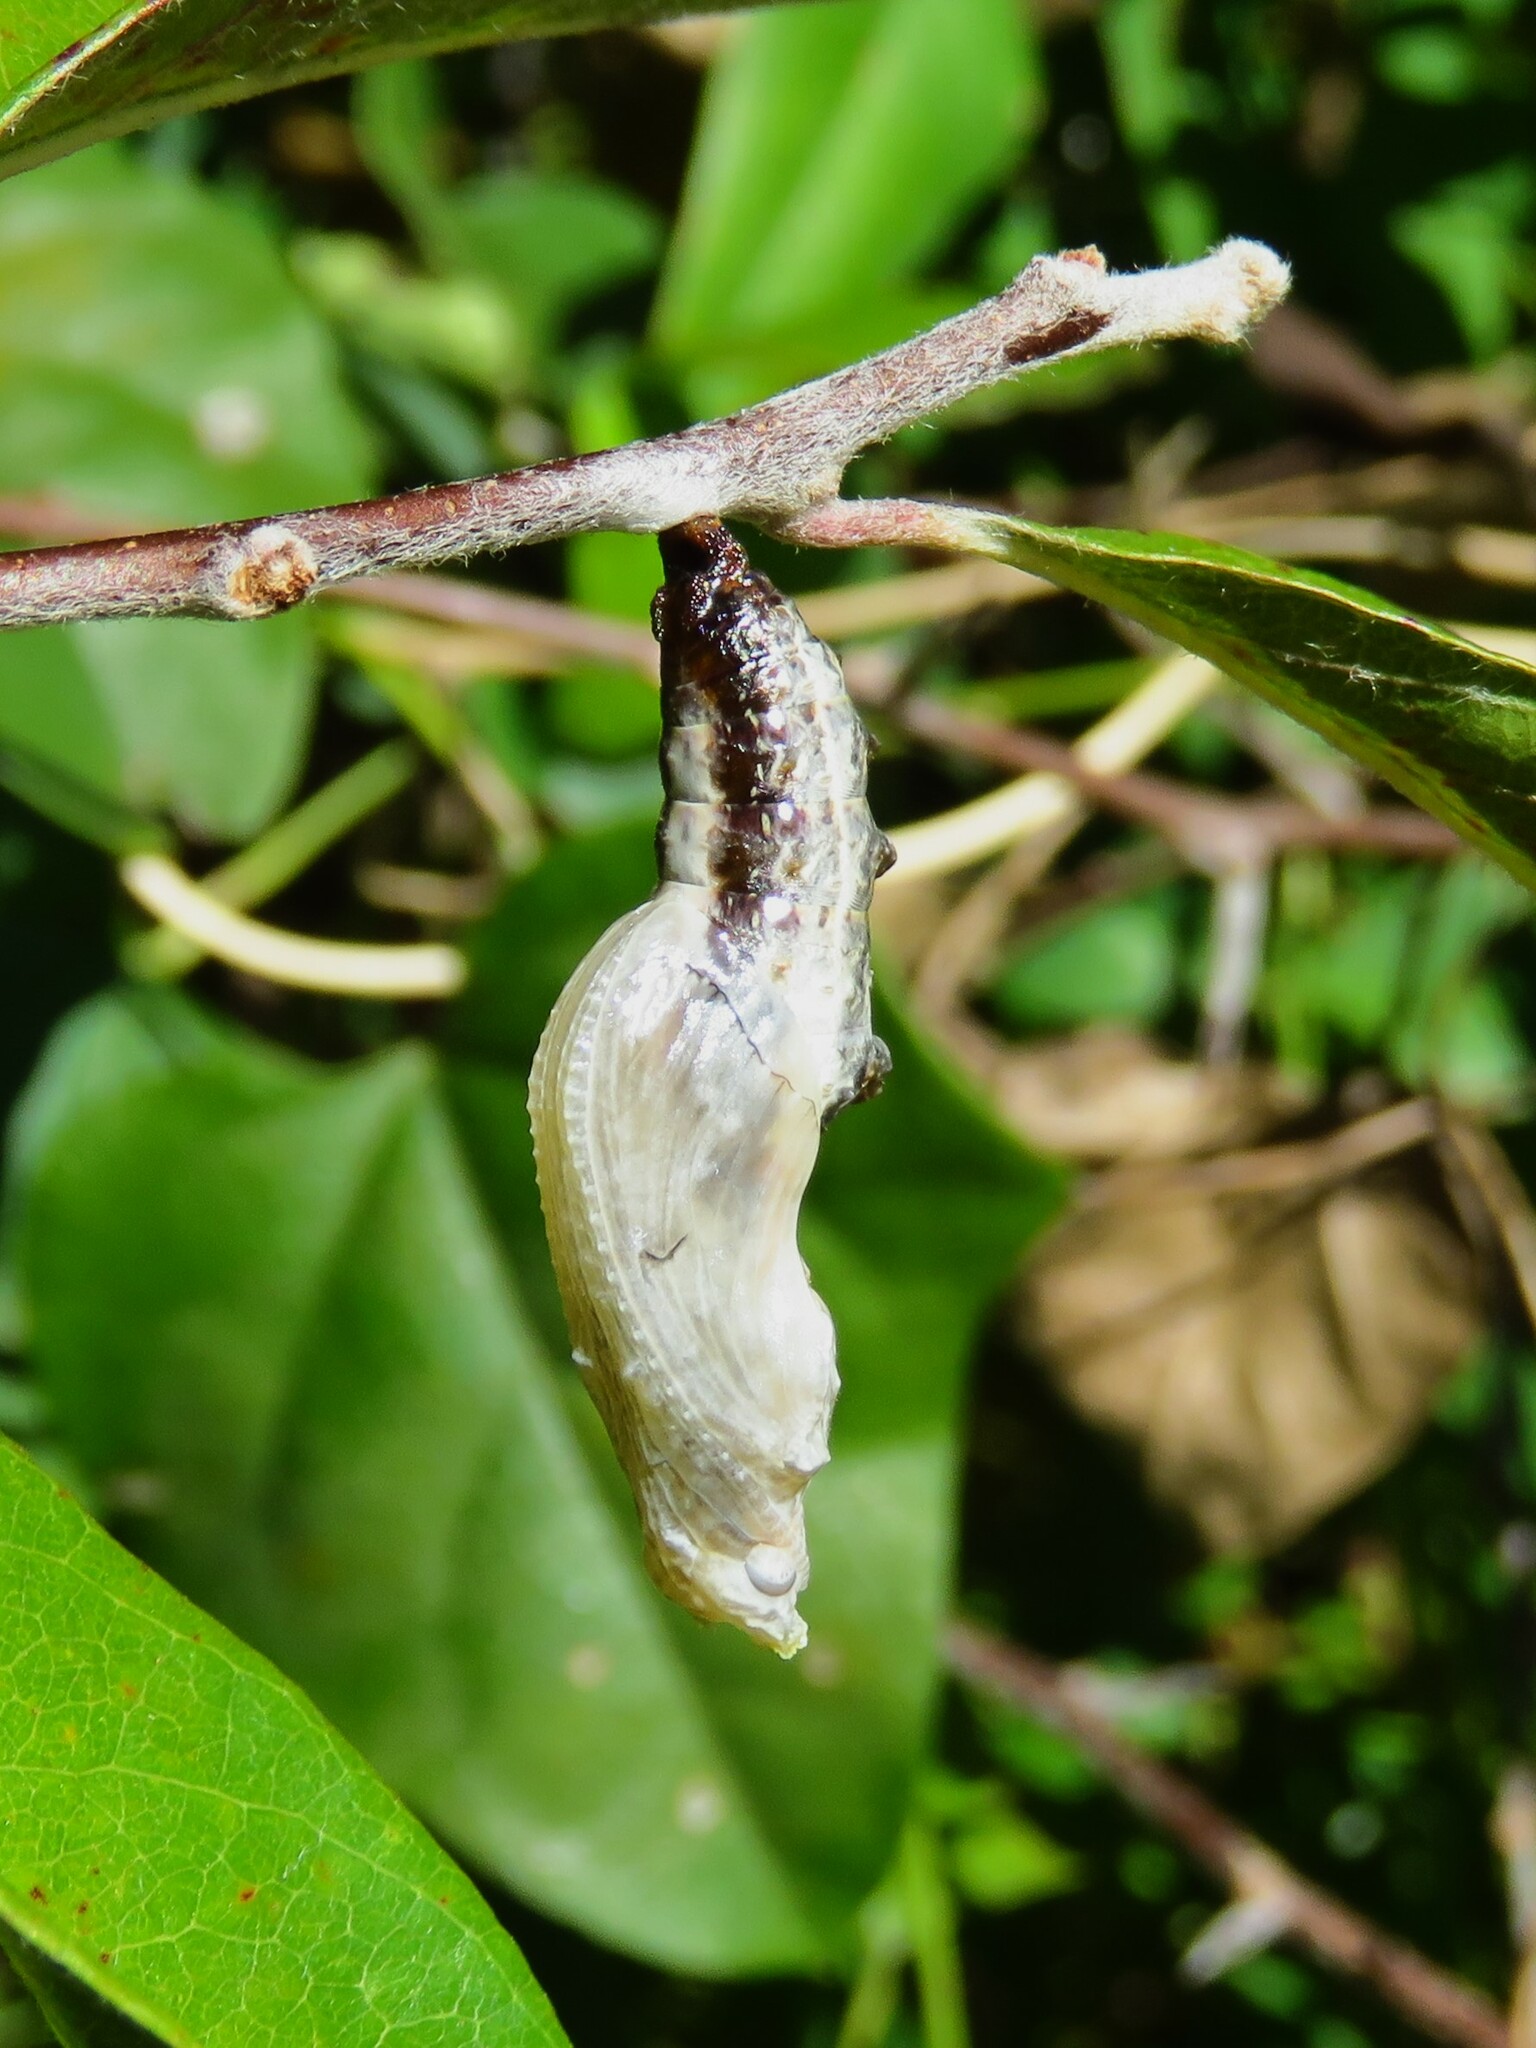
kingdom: Animalia
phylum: Arthropoda
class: Insecta
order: Lepidoptera
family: Nymphalidae
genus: Dione
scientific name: Dione vanillae
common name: Gulf fritillary
